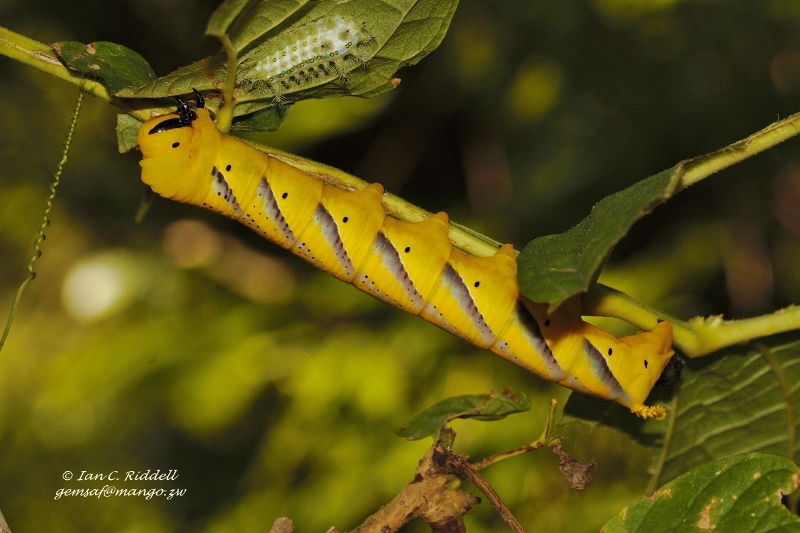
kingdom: Animalia
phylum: Arthropoda
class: Insecta
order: Lepidoptera
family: Sphingidae
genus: Acherontia
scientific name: Acherontia atropos
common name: Death's-head hawk moth
